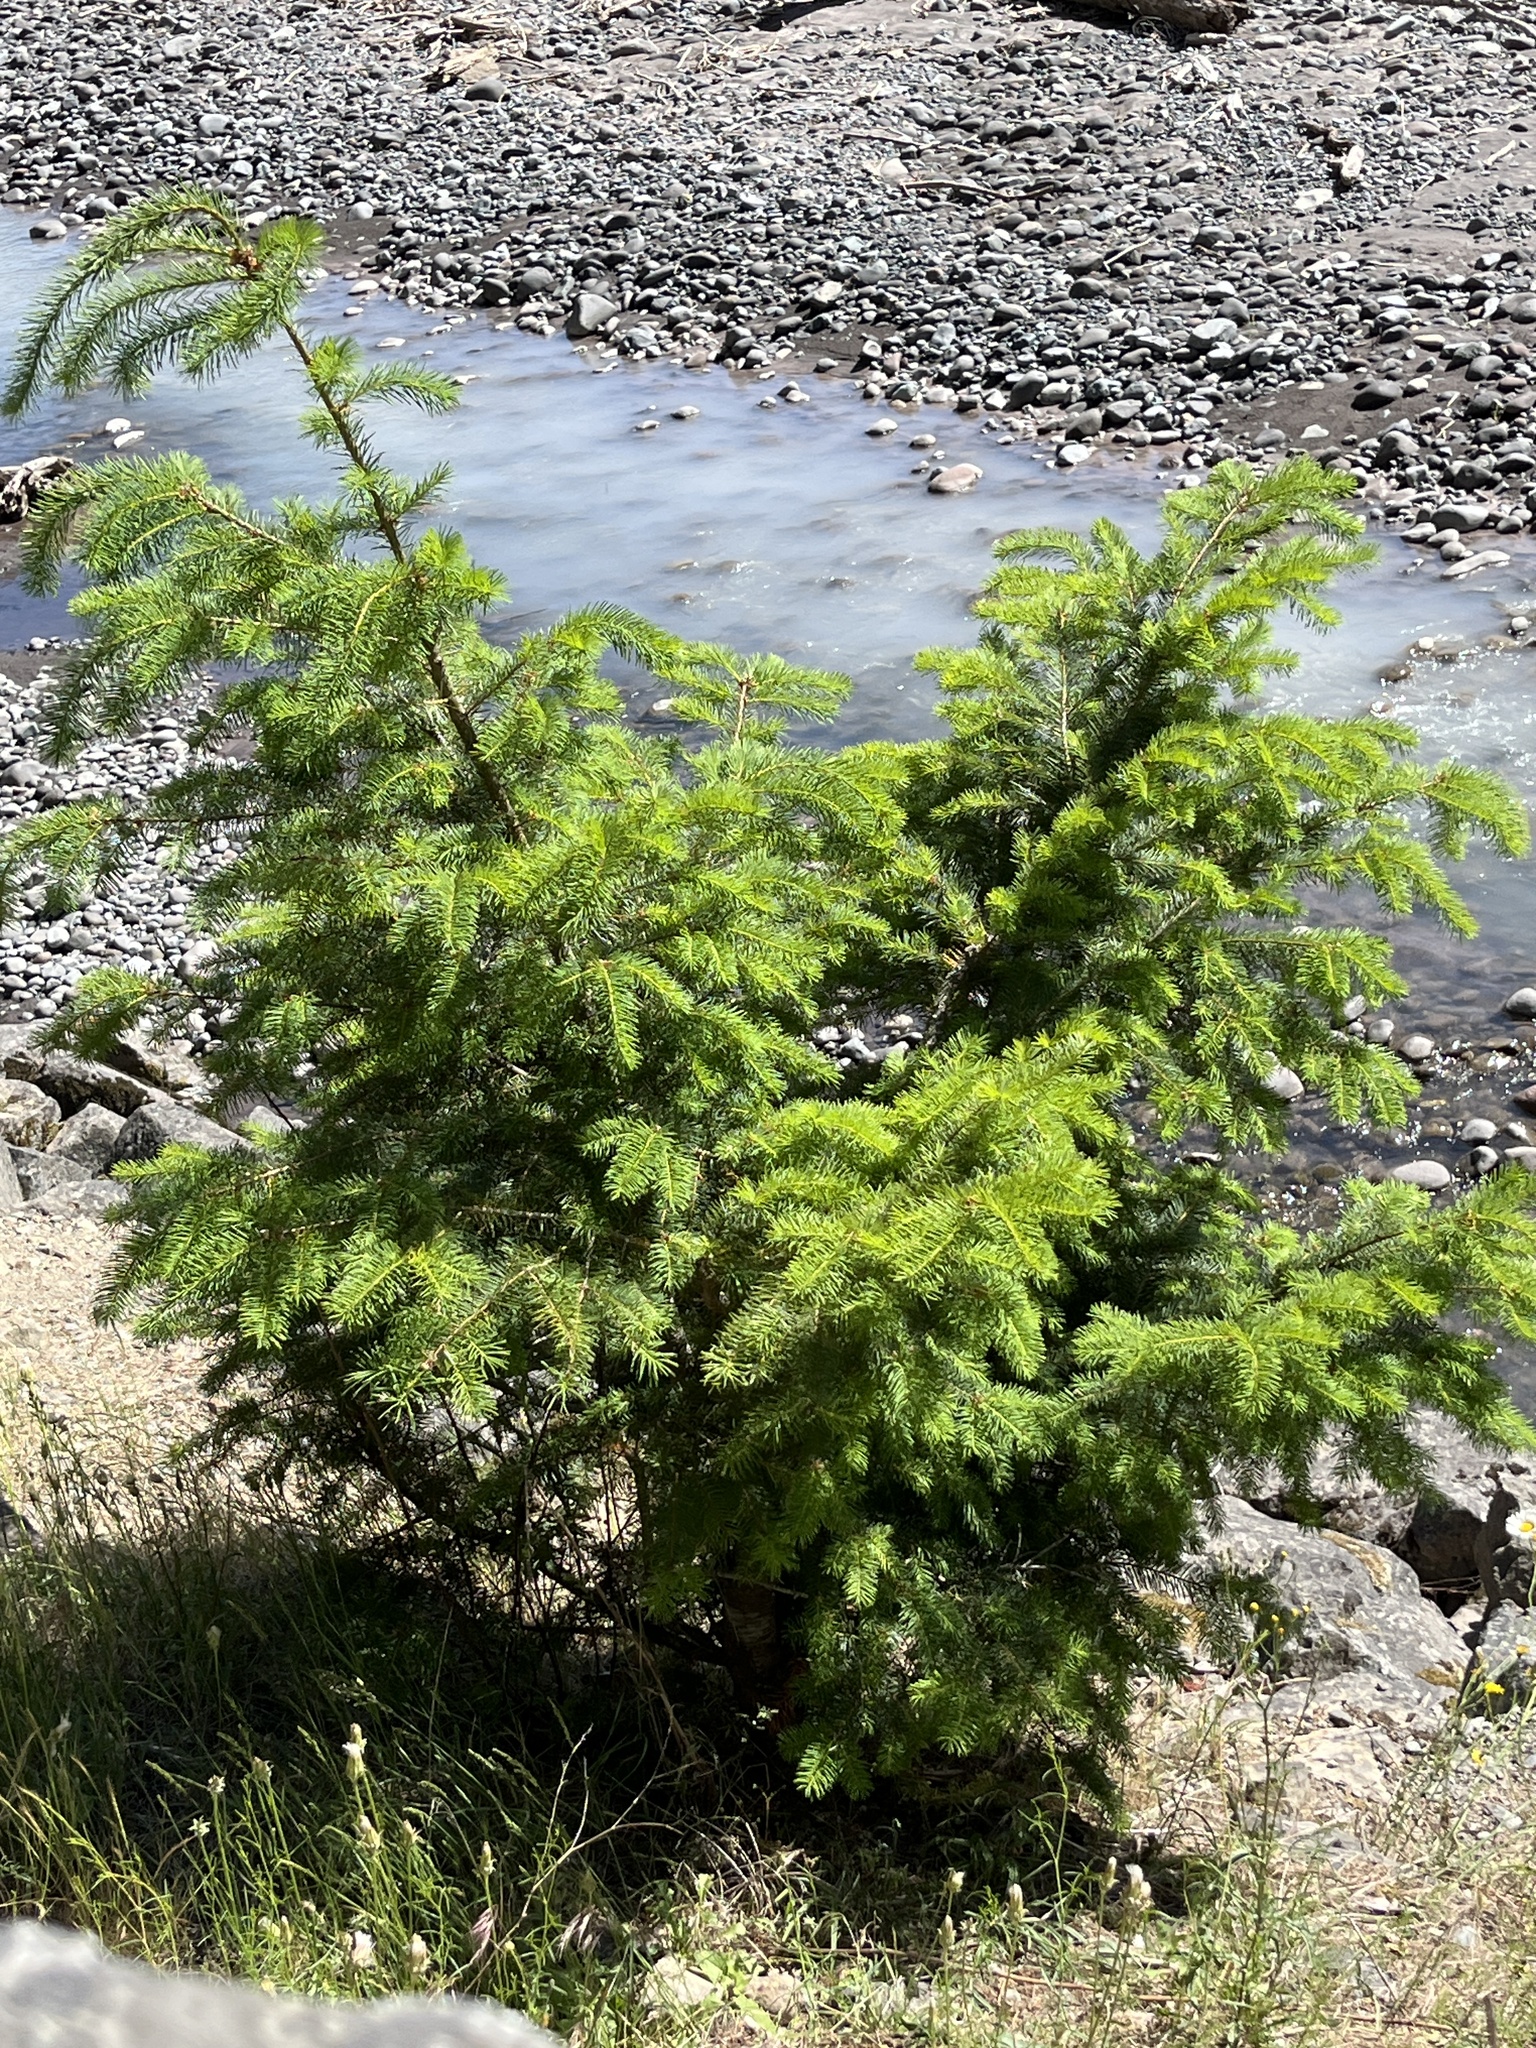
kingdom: Plantae
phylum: Tracheophyta
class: Pinopsida
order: Pinales
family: Pinaceae
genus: Pseudotsuga
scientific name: Pseudotsuga menziesii
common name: Douglas fir
